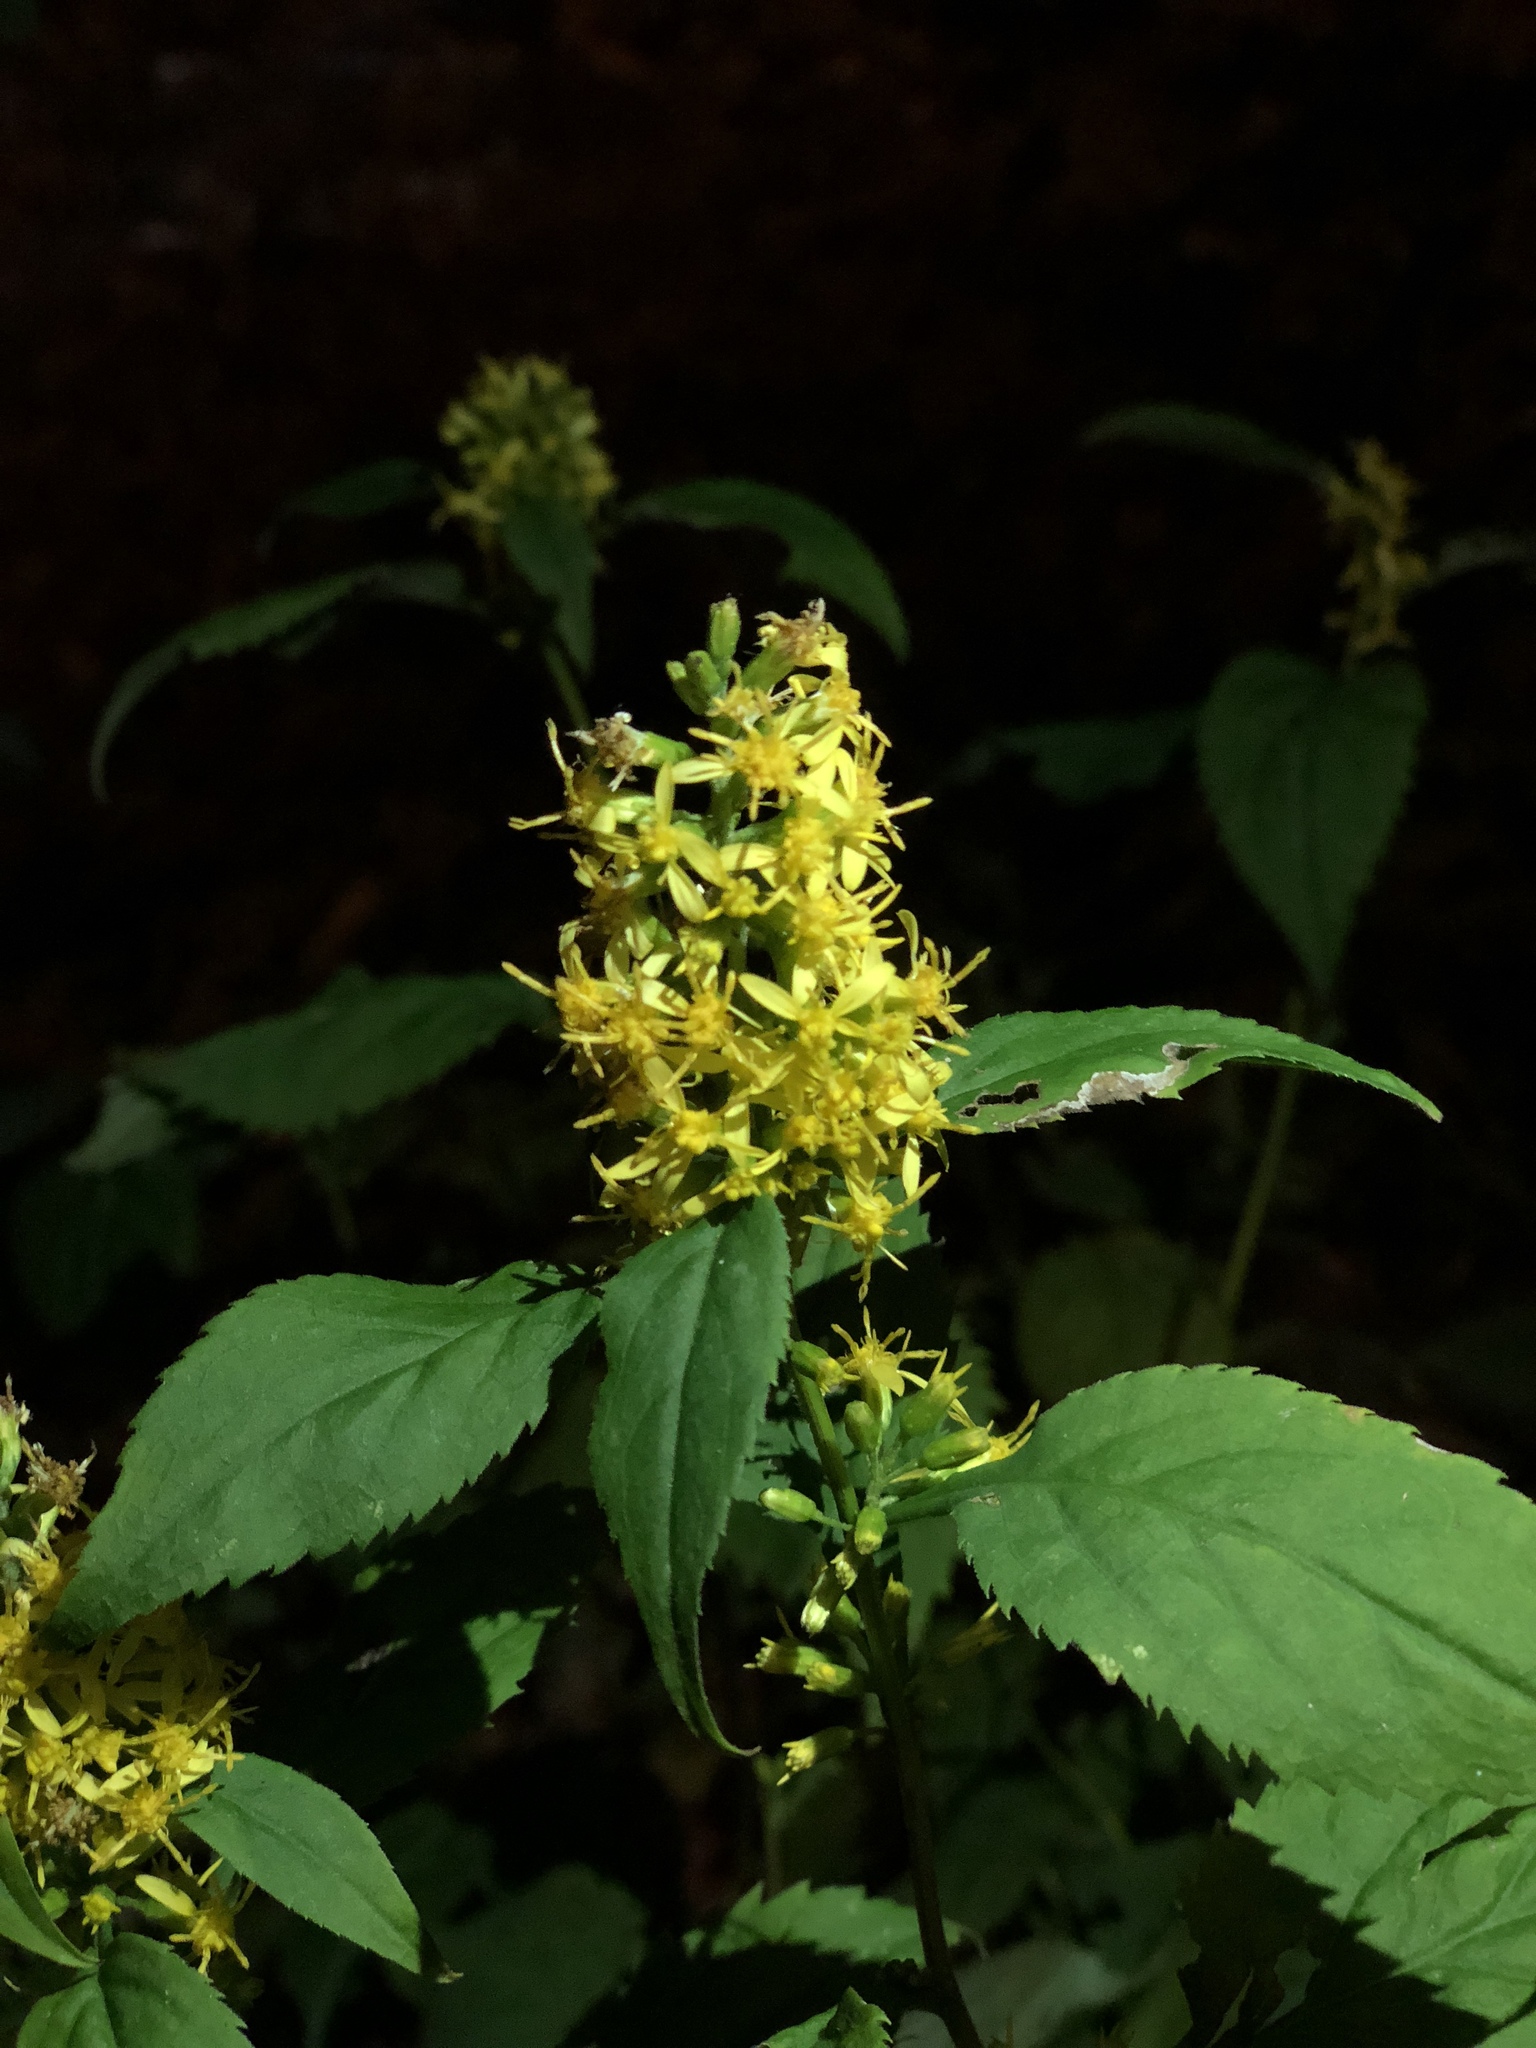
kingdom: Plantae
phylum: Tracheophyta
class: Magnoliopsida
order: Asterales
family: Asteraceae
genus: Solidago
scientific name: Solidago flexicaulis
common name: Zig-zag goldenrod
